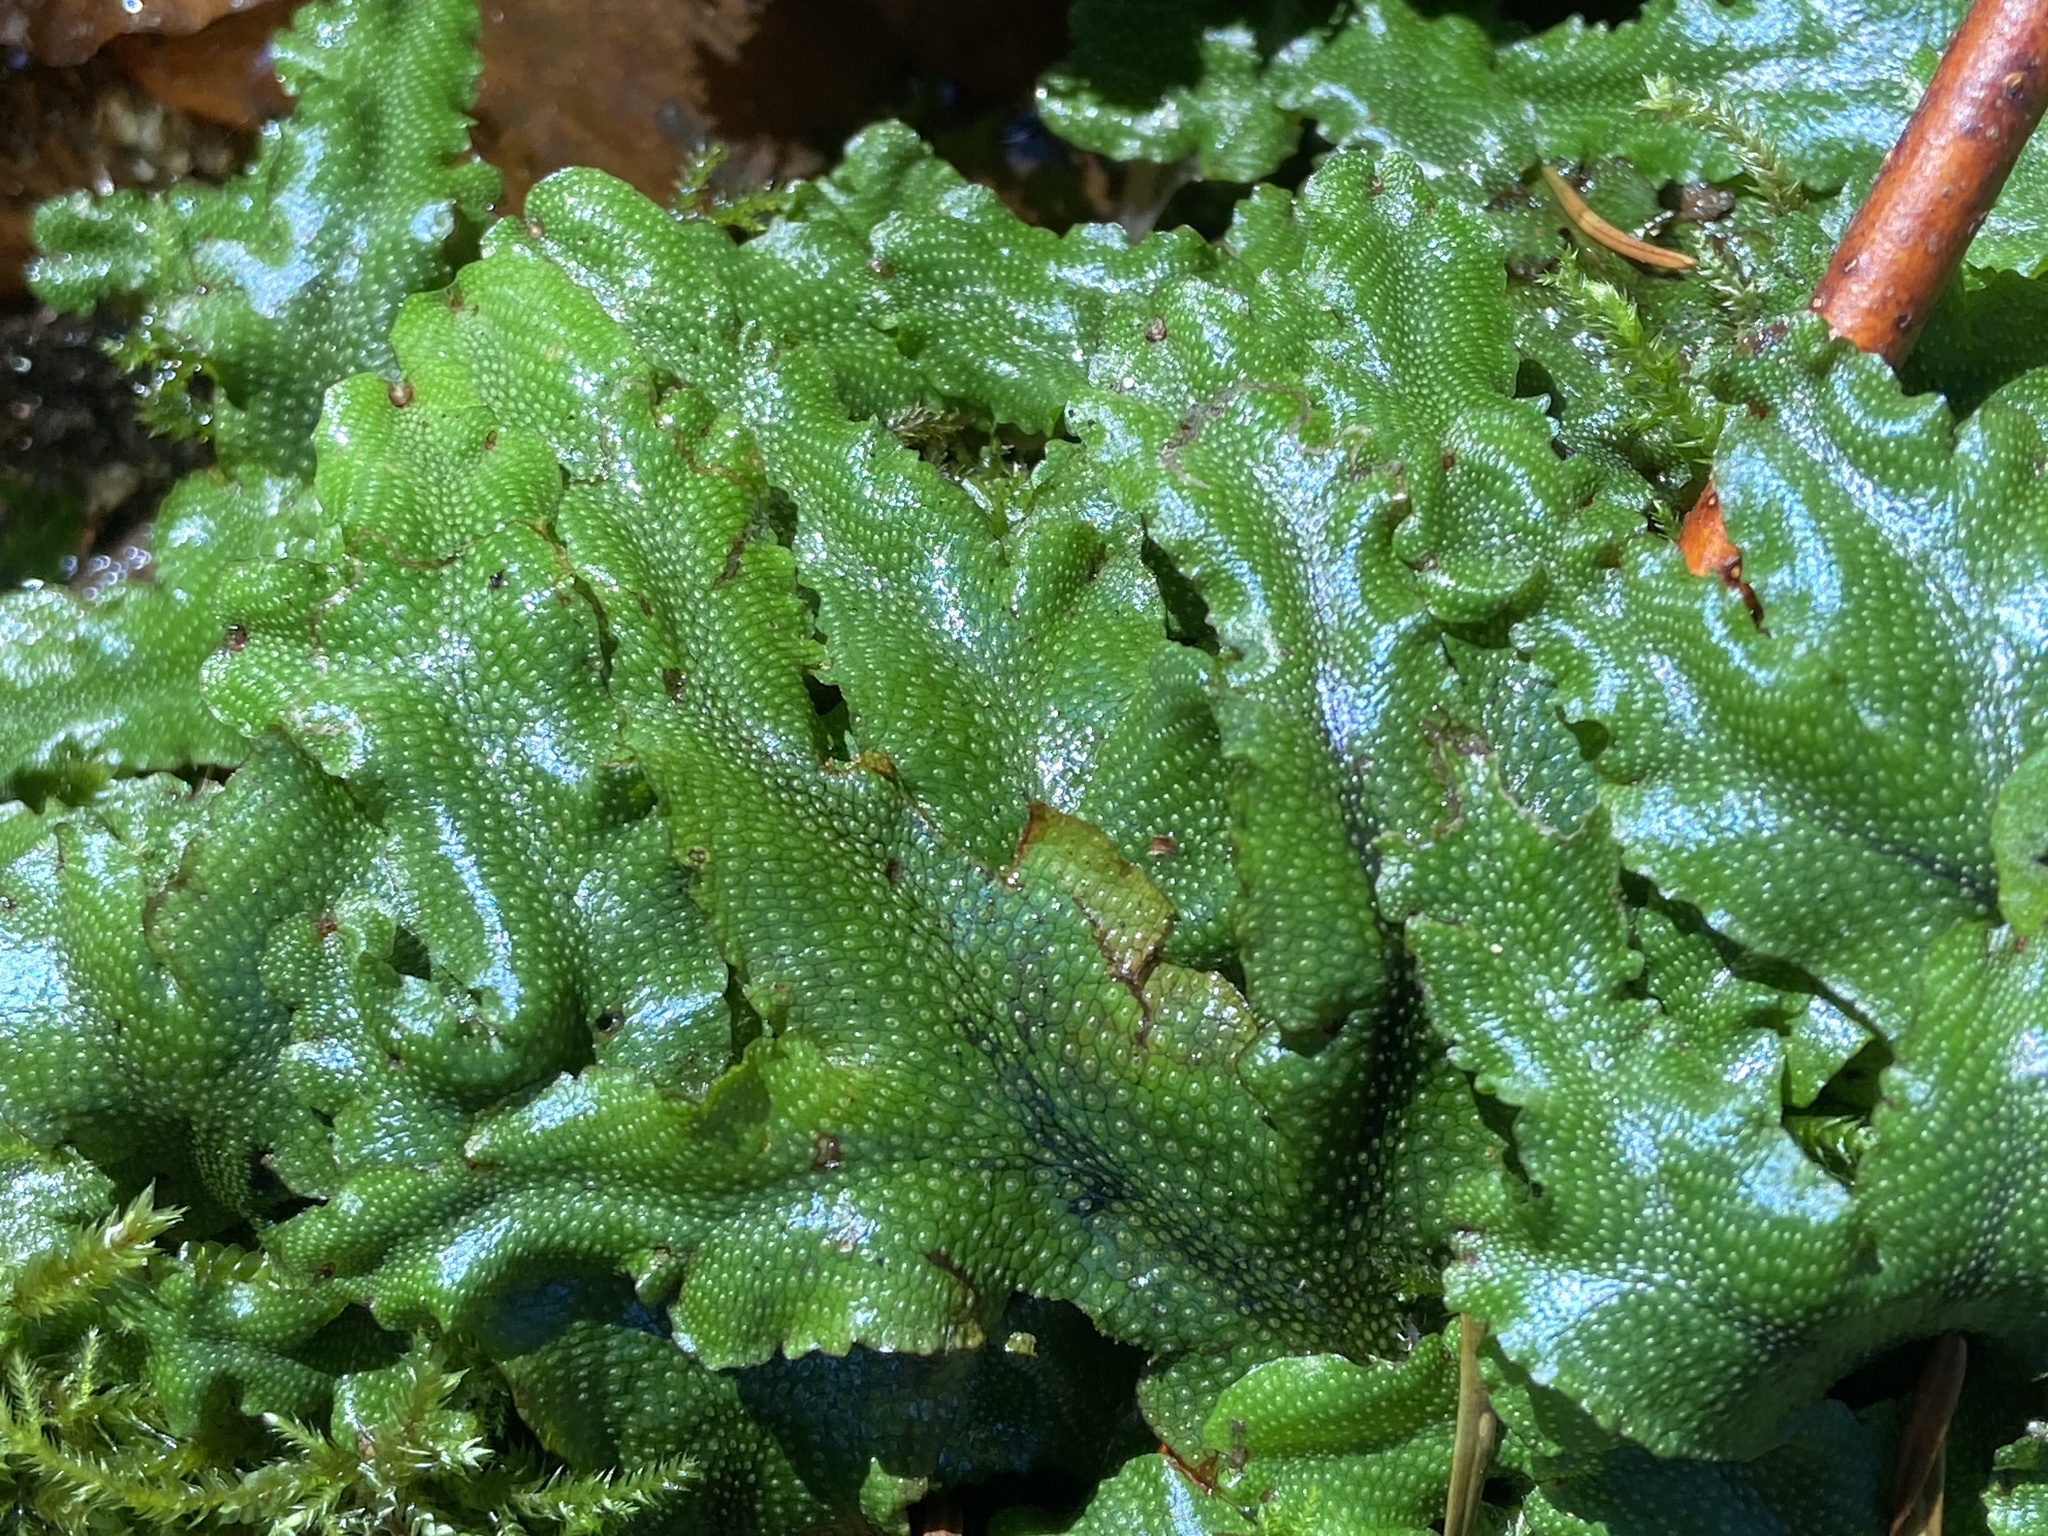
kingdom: Plantae
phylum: Marchantiophyta
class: Marchantiopsida
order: Marchantiales
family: Conocephalaceae
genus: Conocephalum
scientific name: Conocephalum conicum
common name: Great scented liverwort
